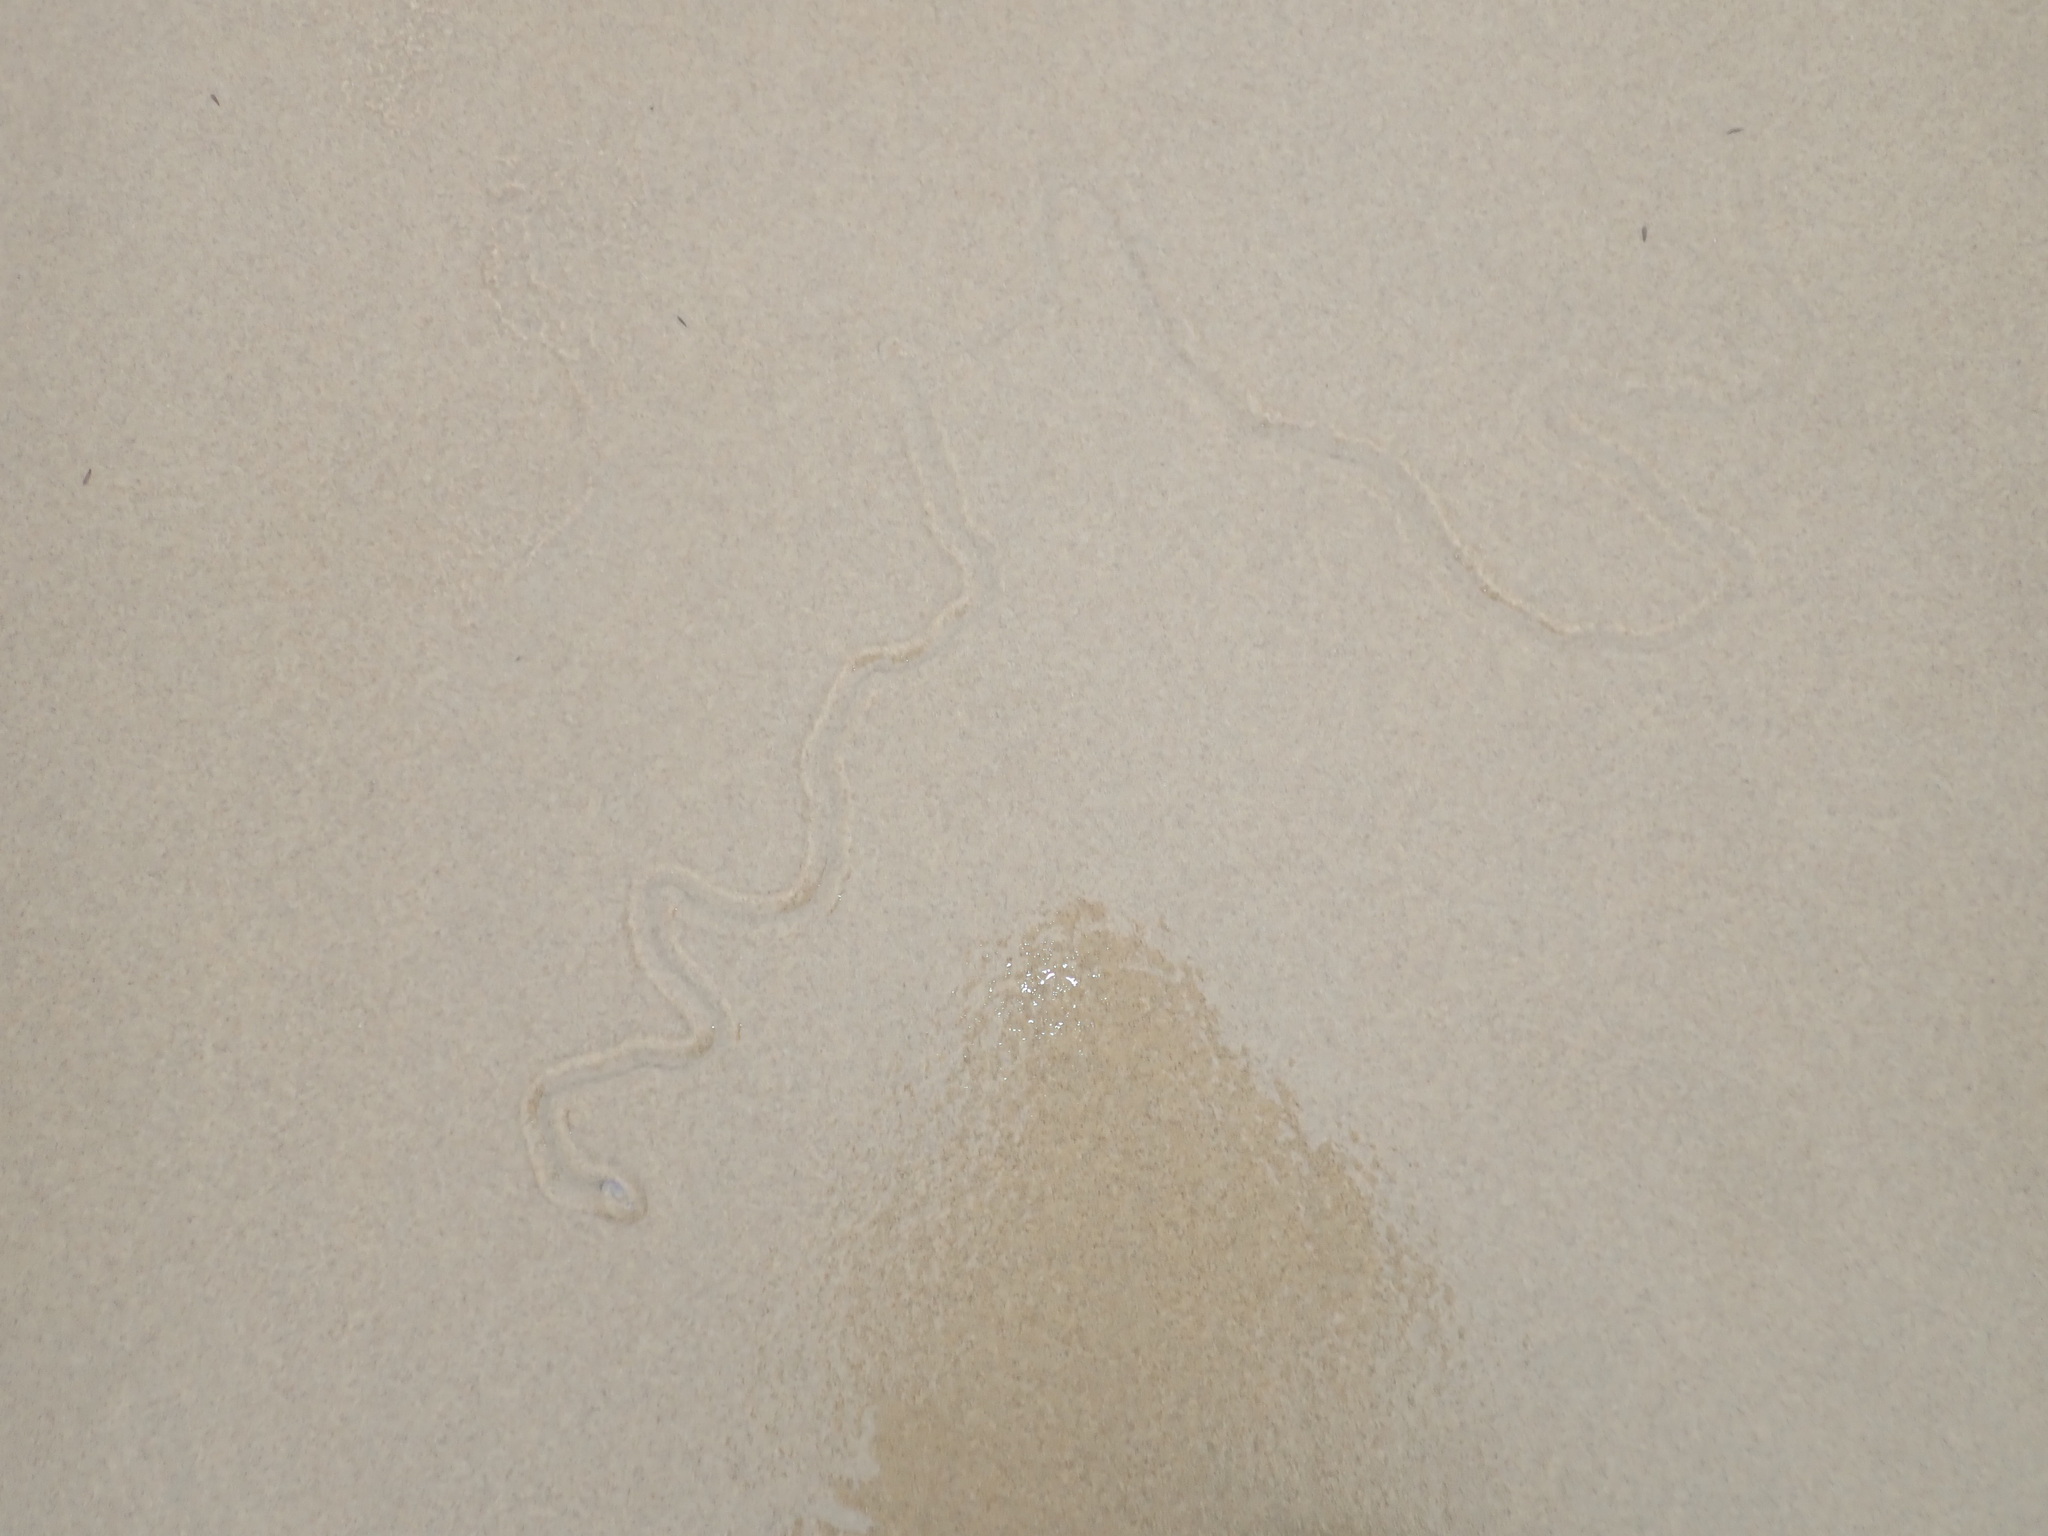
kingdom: Animalia
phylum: Mollusca
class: Gastropoda
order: Littorinimorpha
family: Naticidae
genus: Conuber
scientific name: Conuber incei
